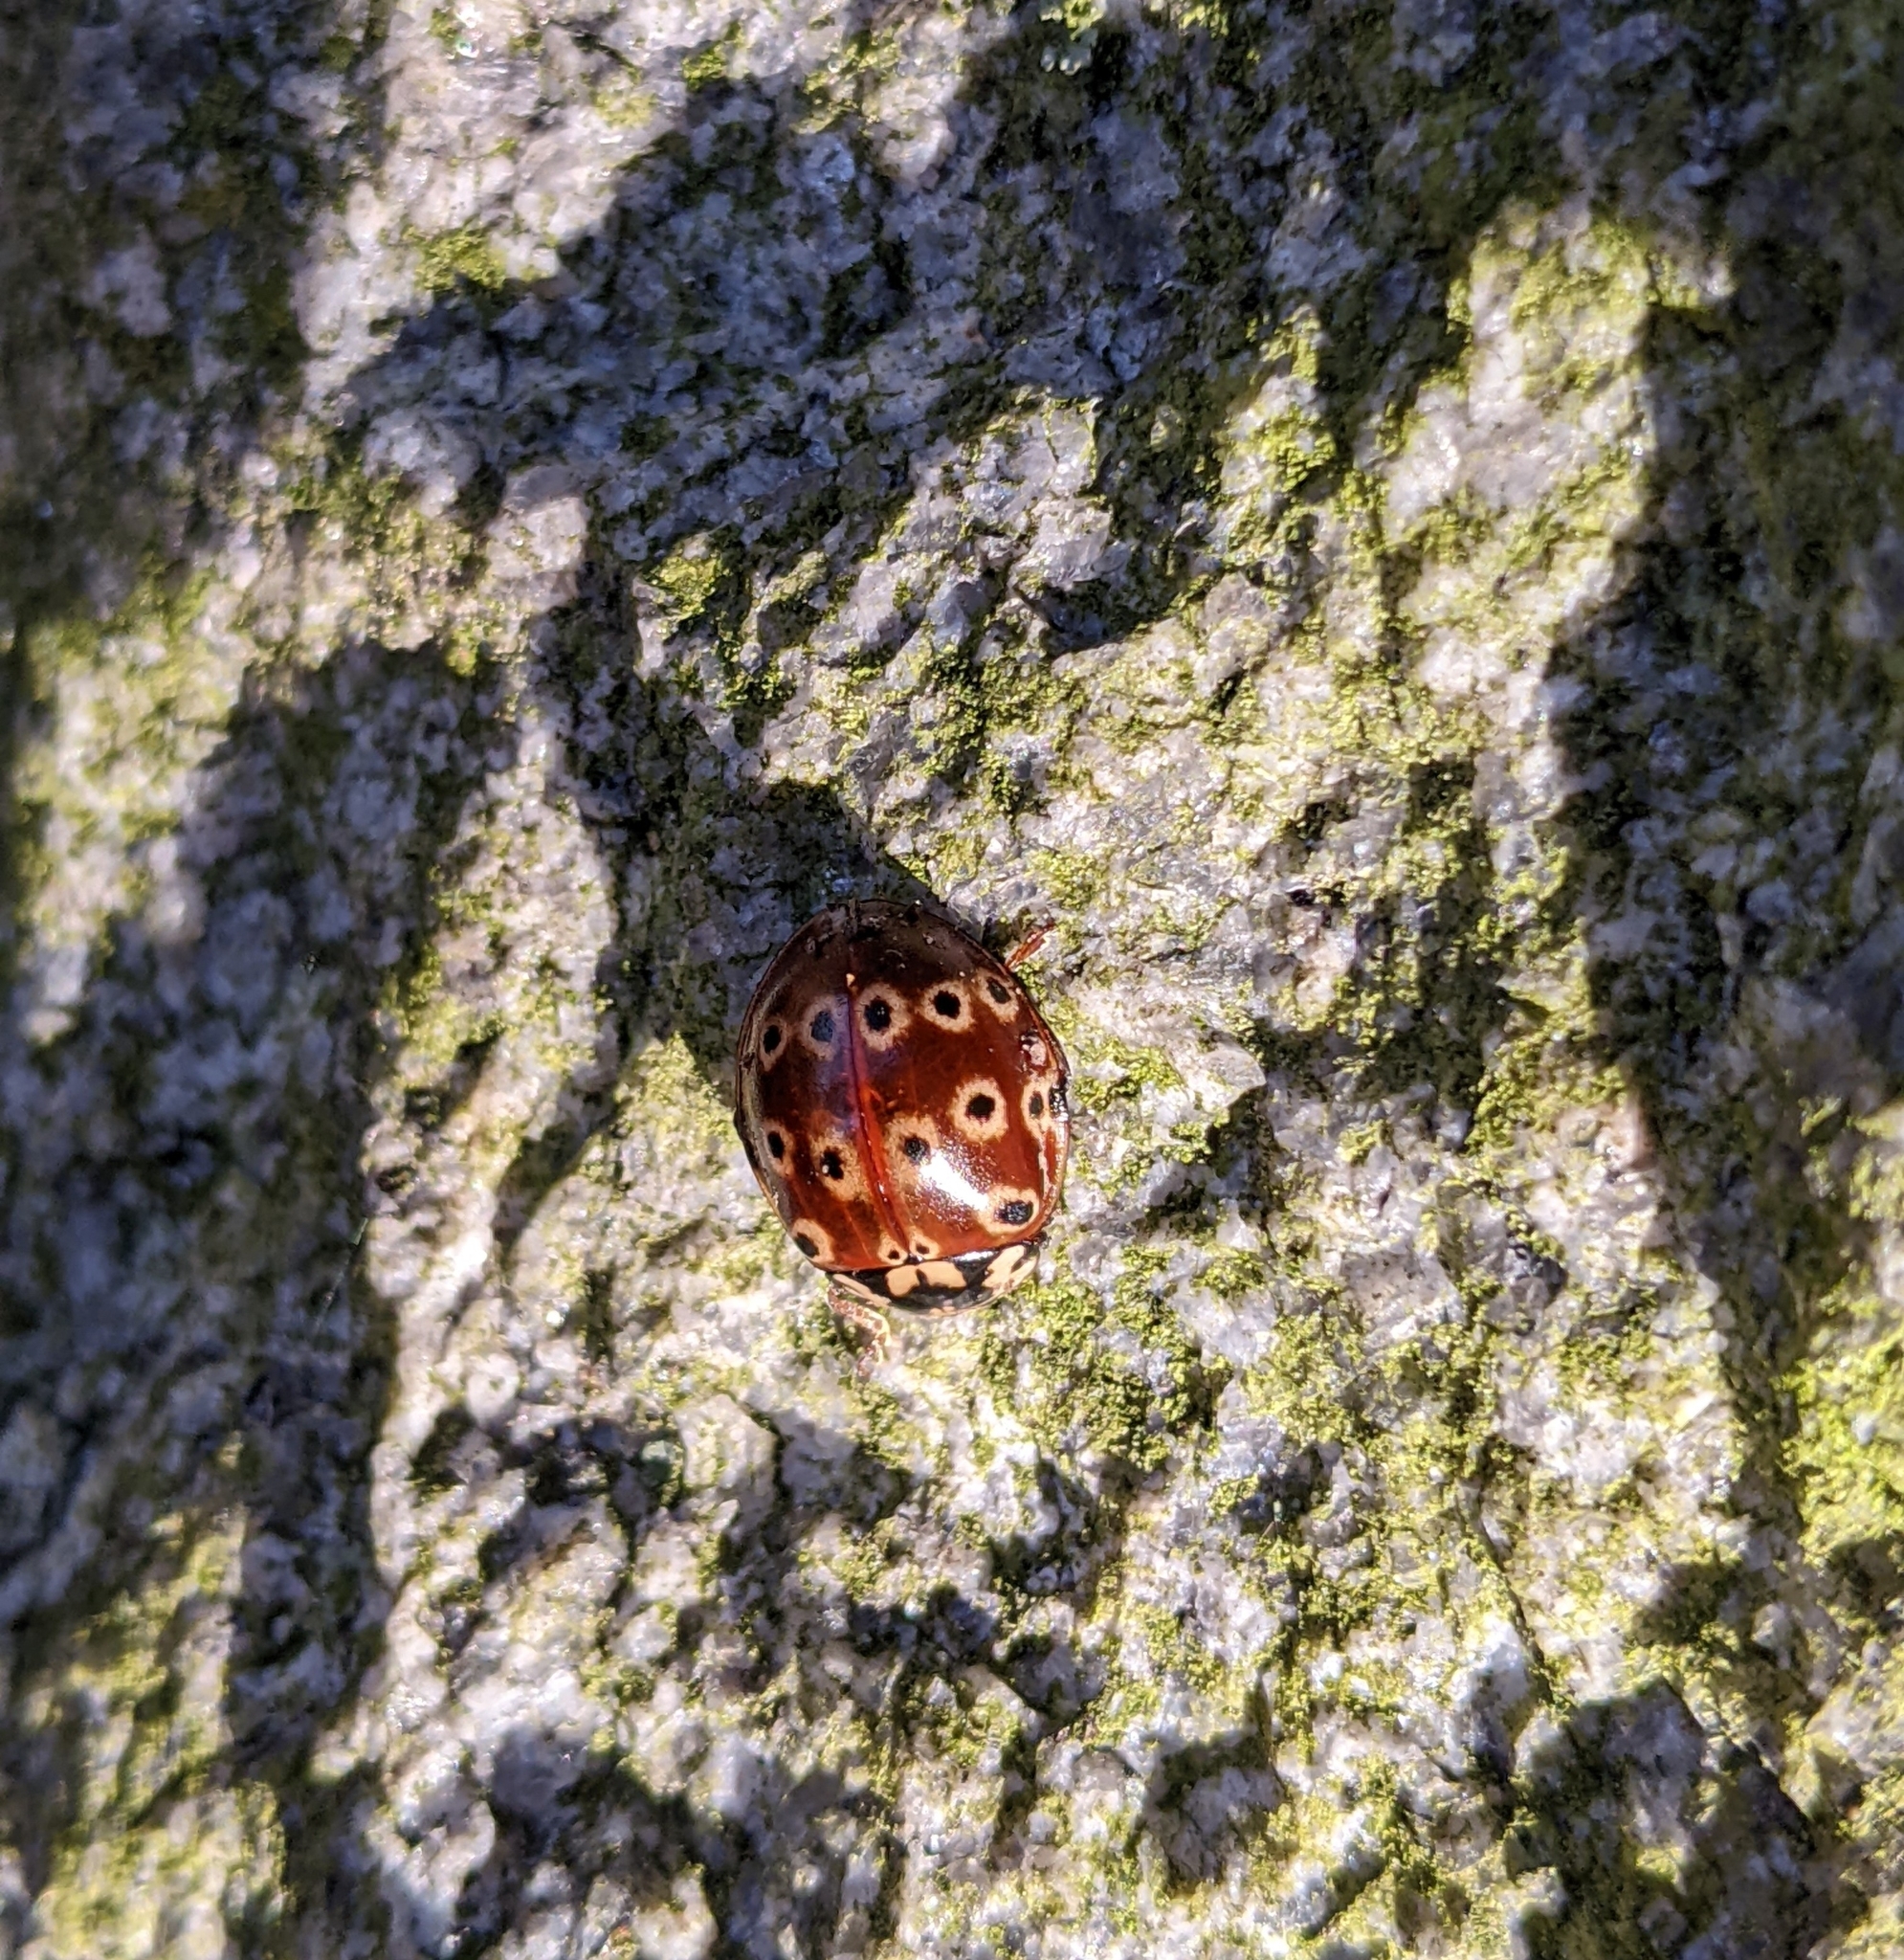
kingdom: Animalia
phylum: Arthropoda
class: Insecta
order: Coleoptera
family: Coccinellidae
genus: Anatis
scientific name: Anatis mali
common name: Eye-spotted lady beetle
